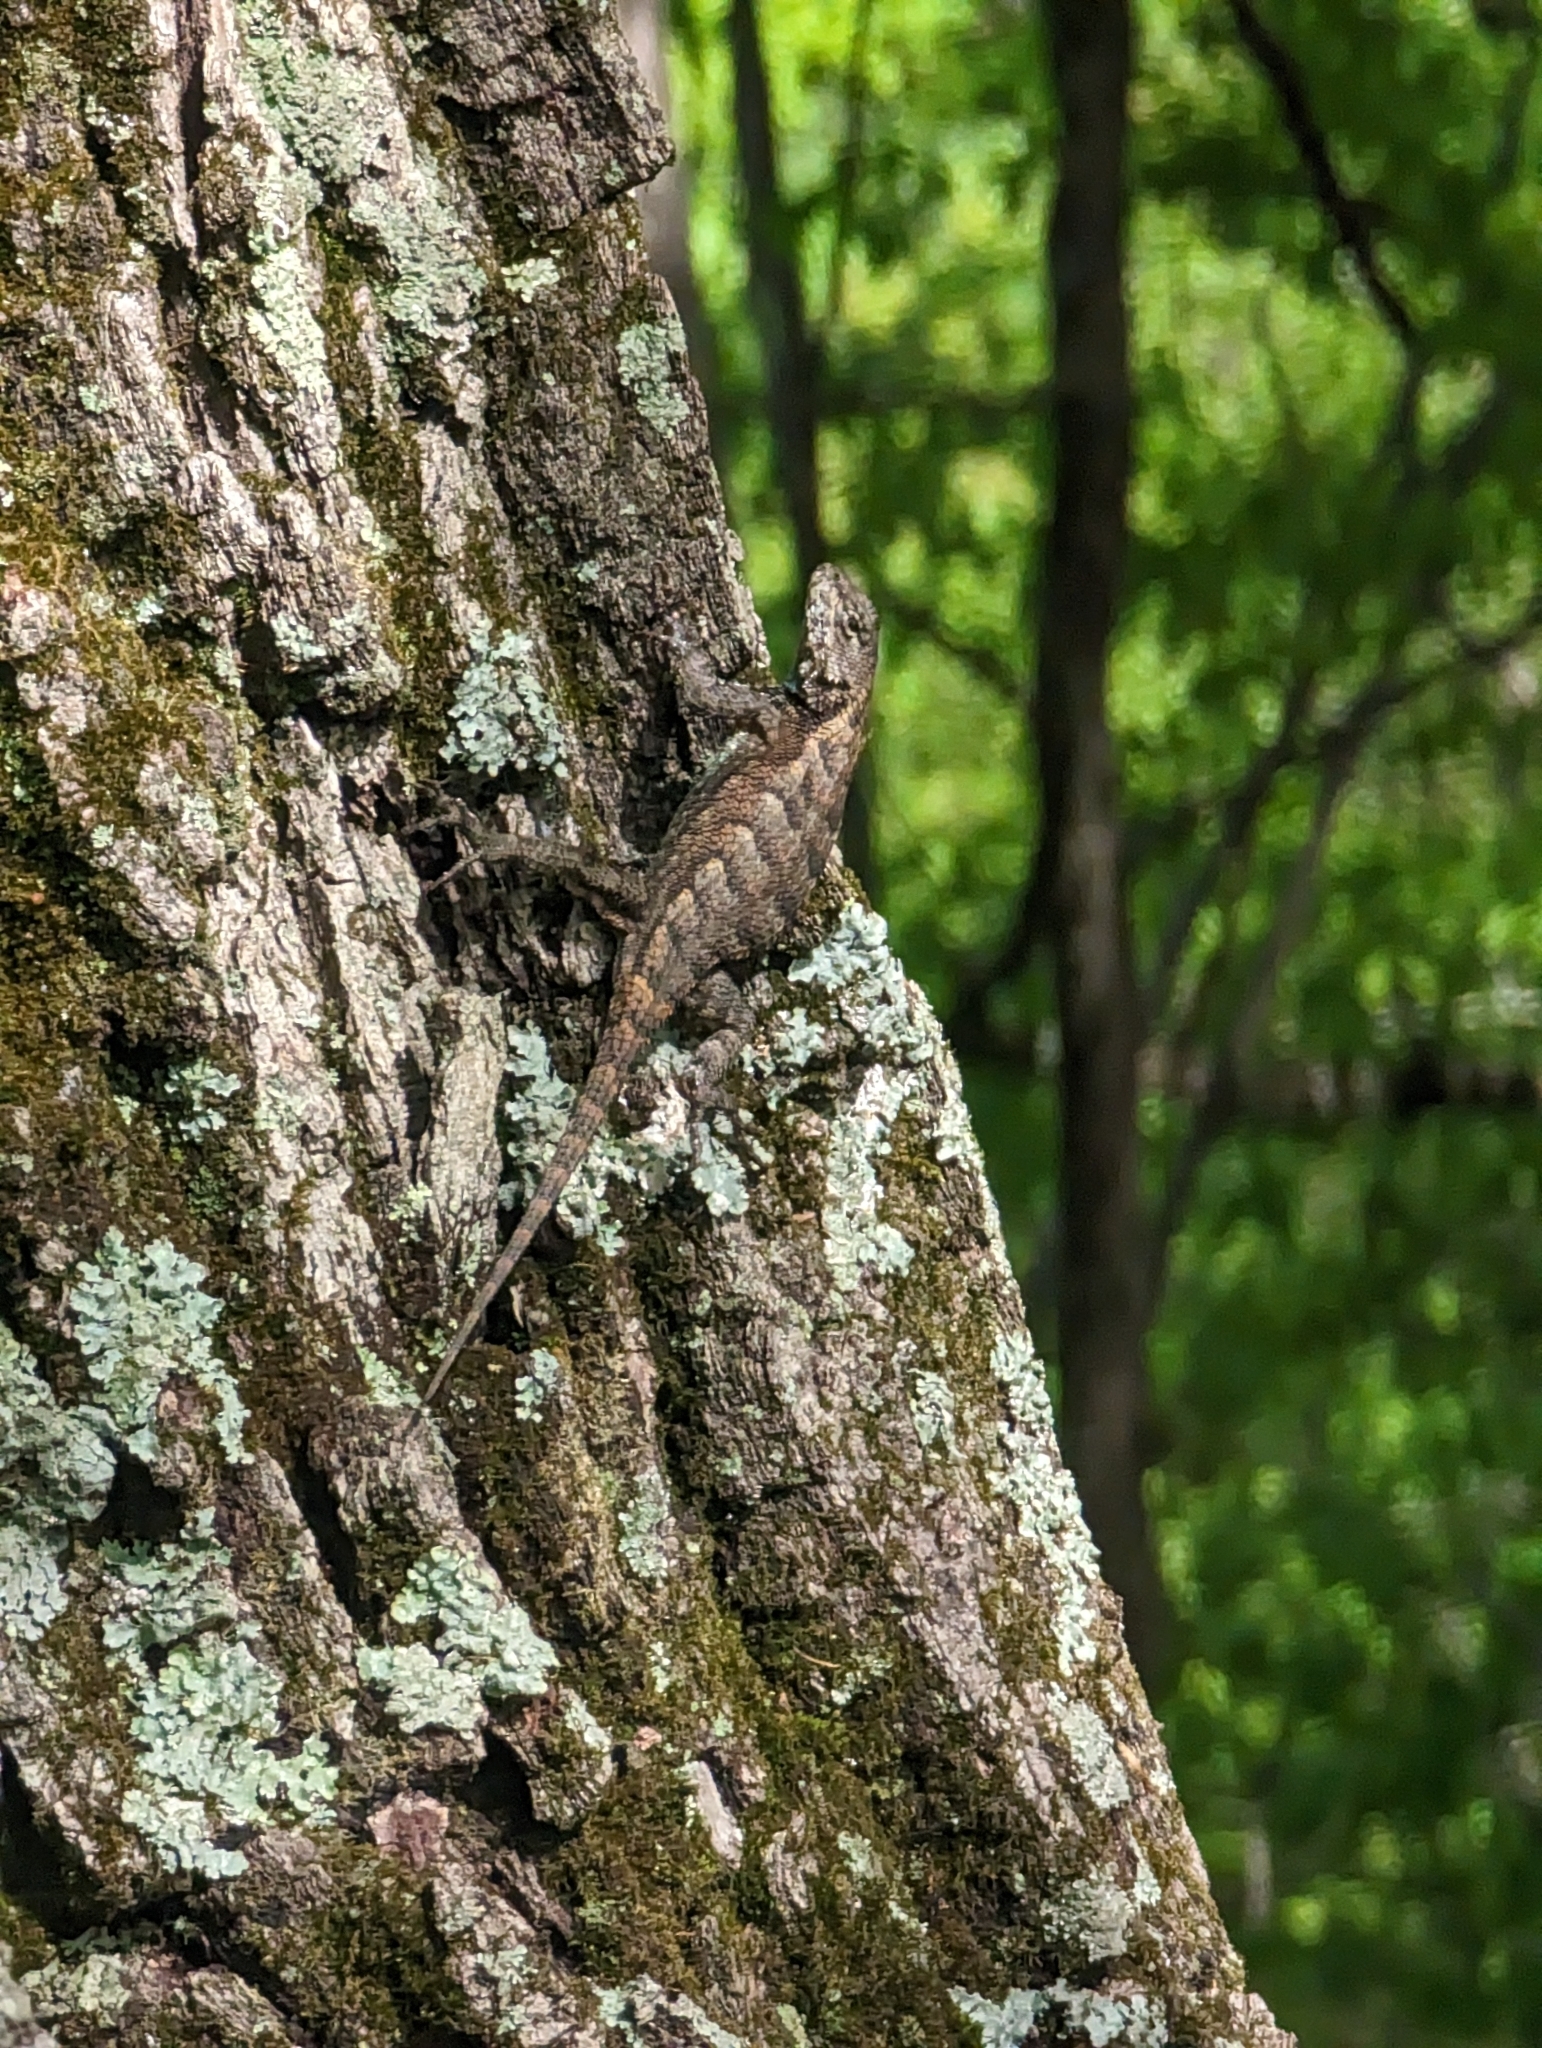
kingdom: Animalia
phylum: Chordata
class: Squamata
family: Phrynosomatidae
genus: Sceloporus
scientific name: Sceloporus undulatus
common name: Eastern fence lizard
